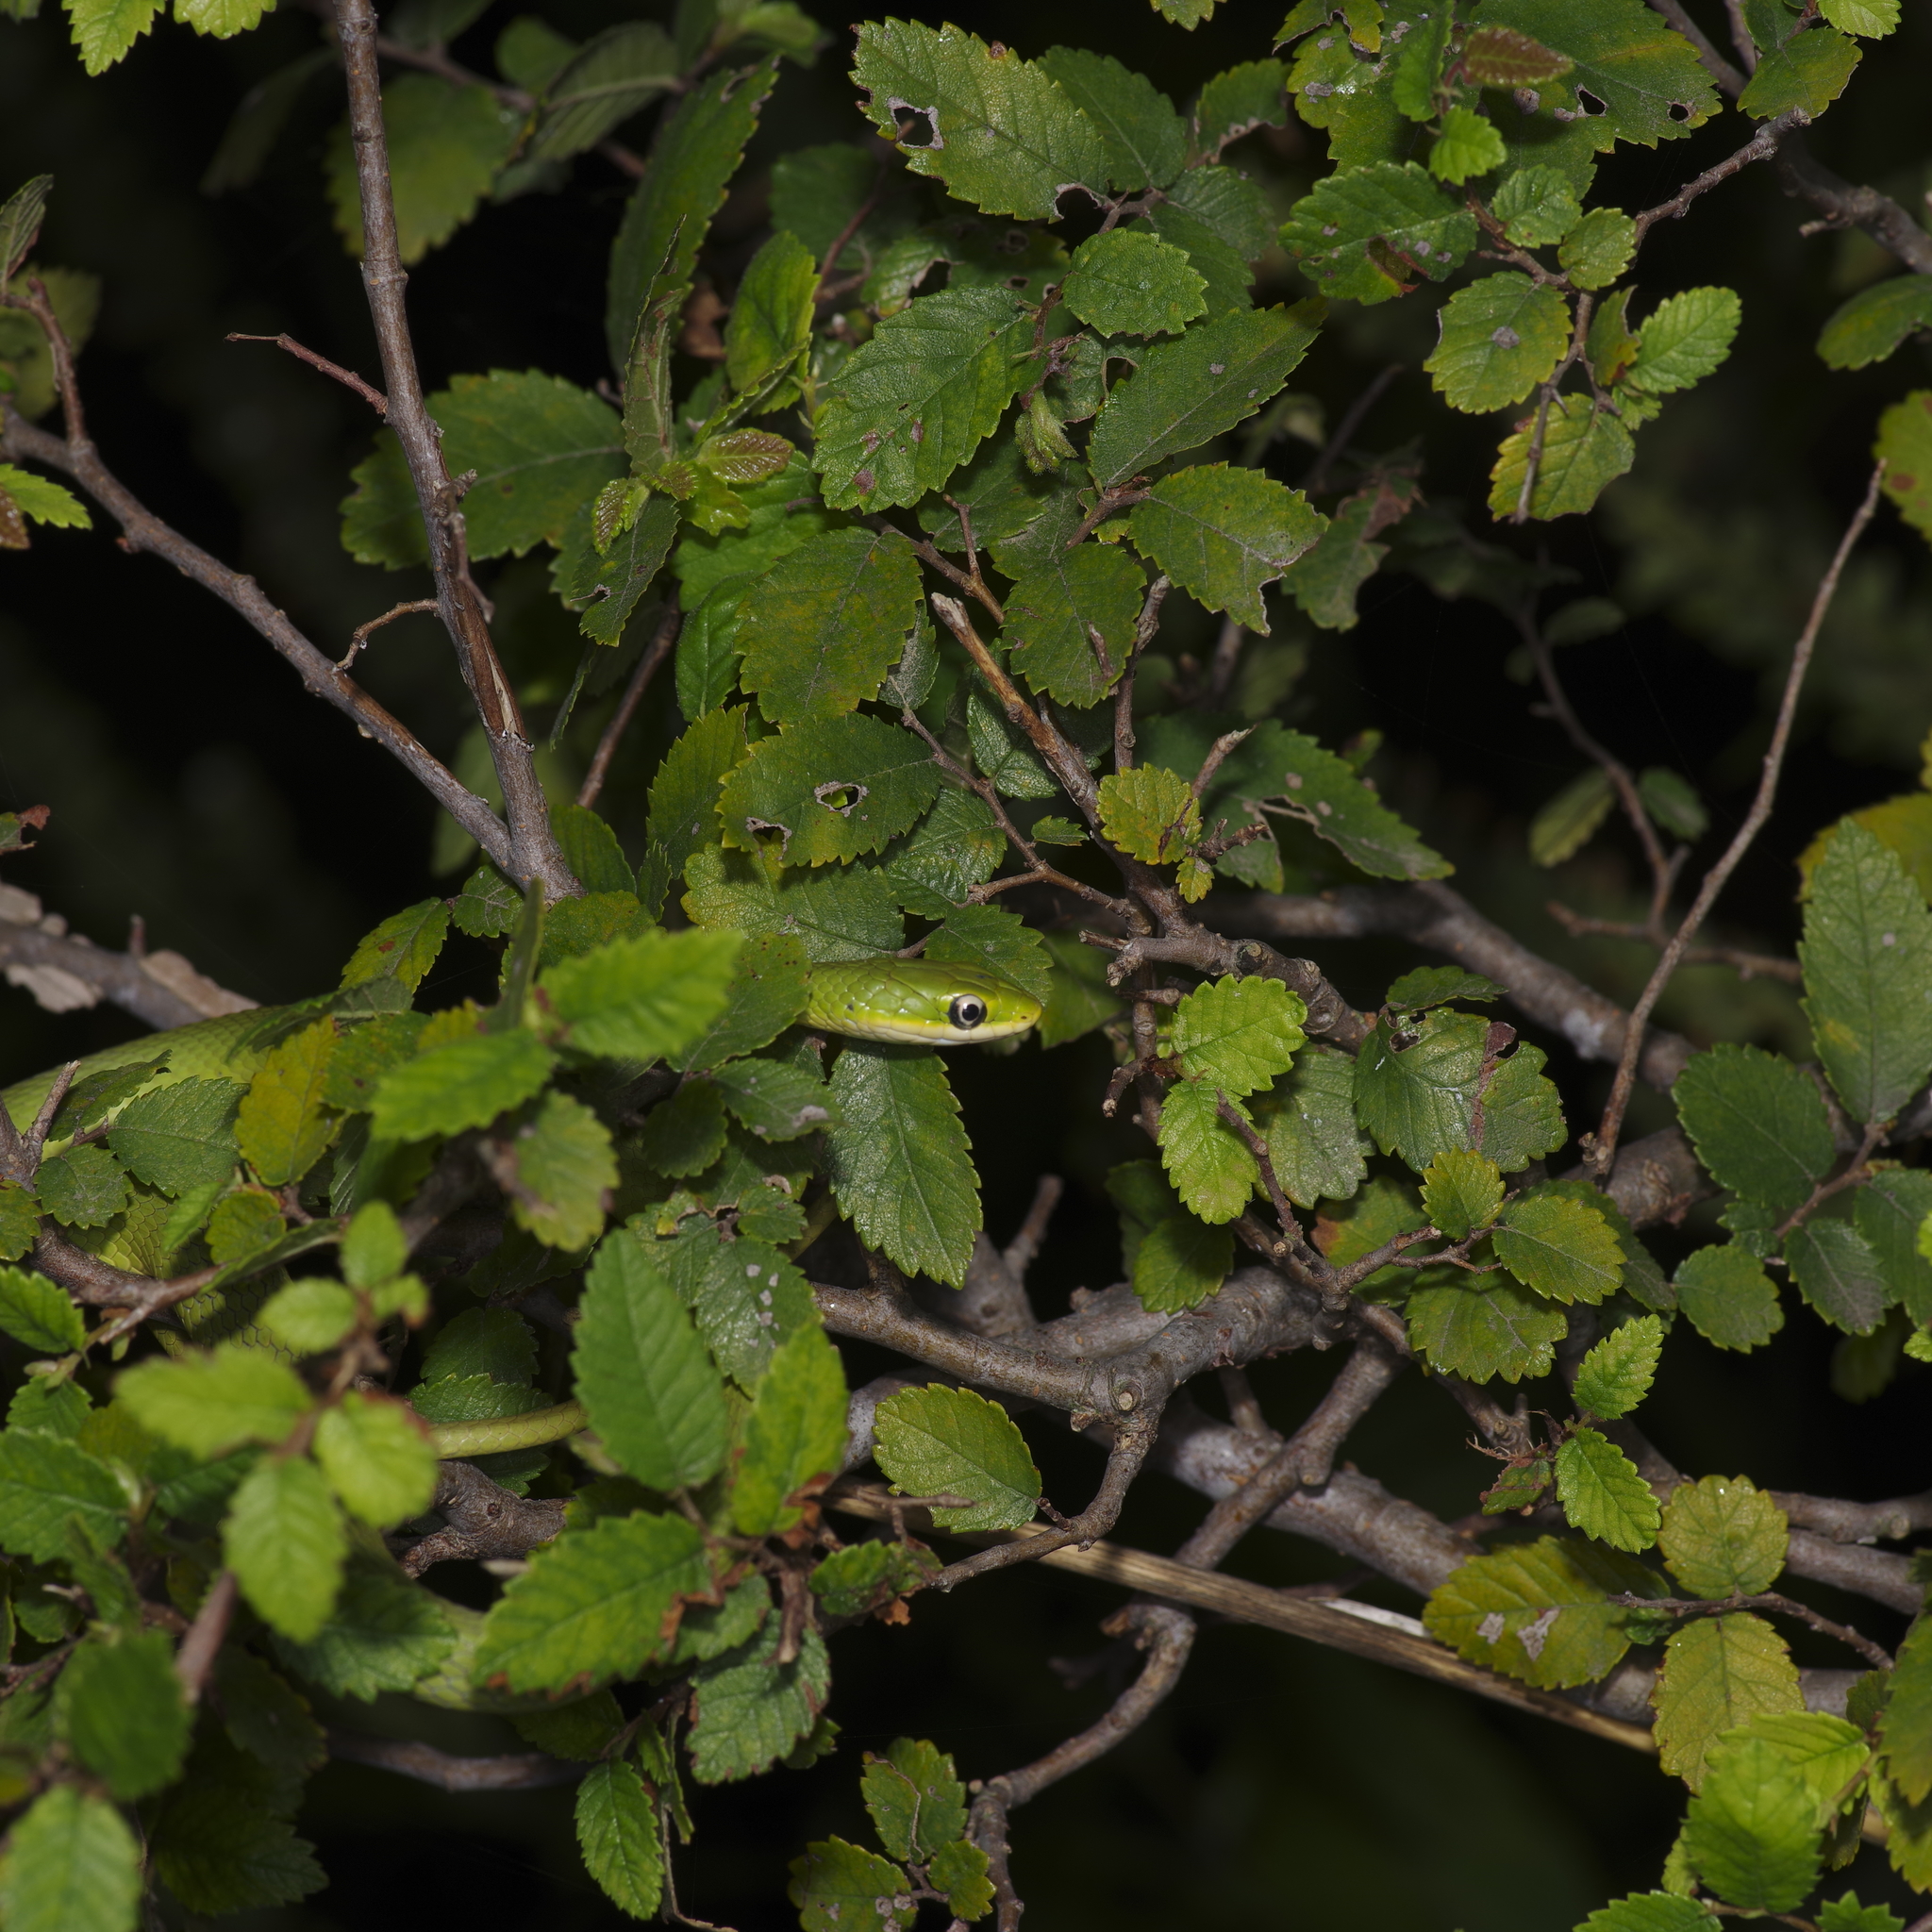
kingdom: Animalia
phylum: Chordata
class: Squamata
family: Colubridae
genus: Opheodrys
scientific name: Opheodrys aestivus
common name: Rough greensnake
